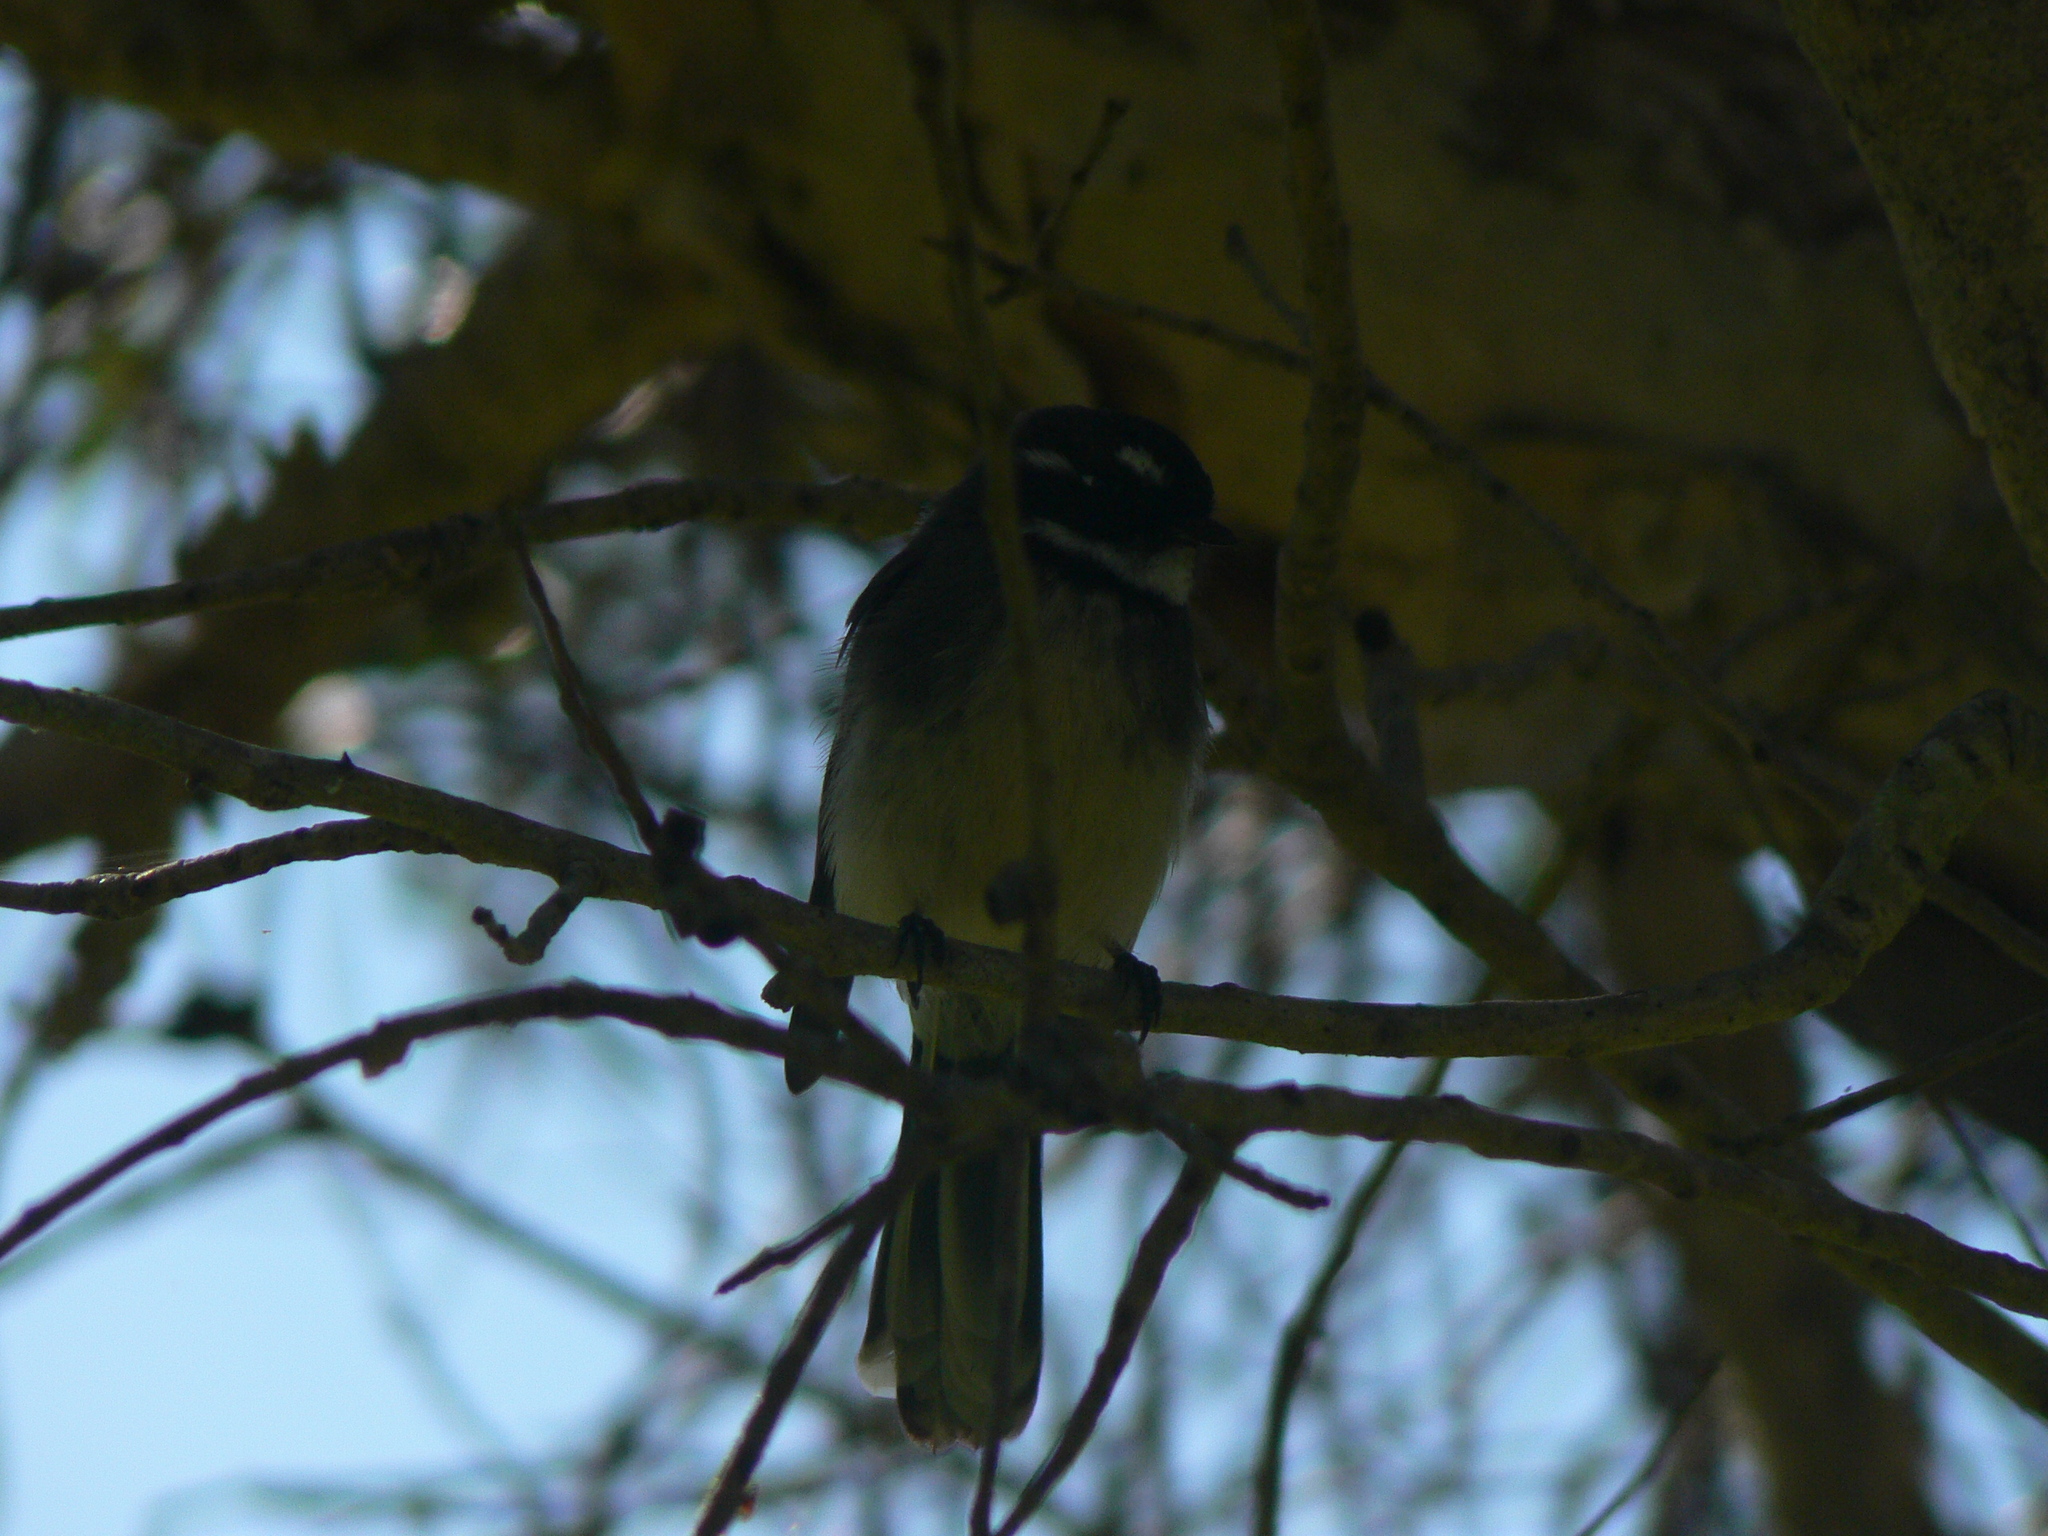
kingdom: Animalia
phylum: Chordata
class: Aves
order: Passeriformes
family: Rhipiduridae
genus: Rhipidura
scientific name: Rhipidura albiscapa
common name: Grey fantail
